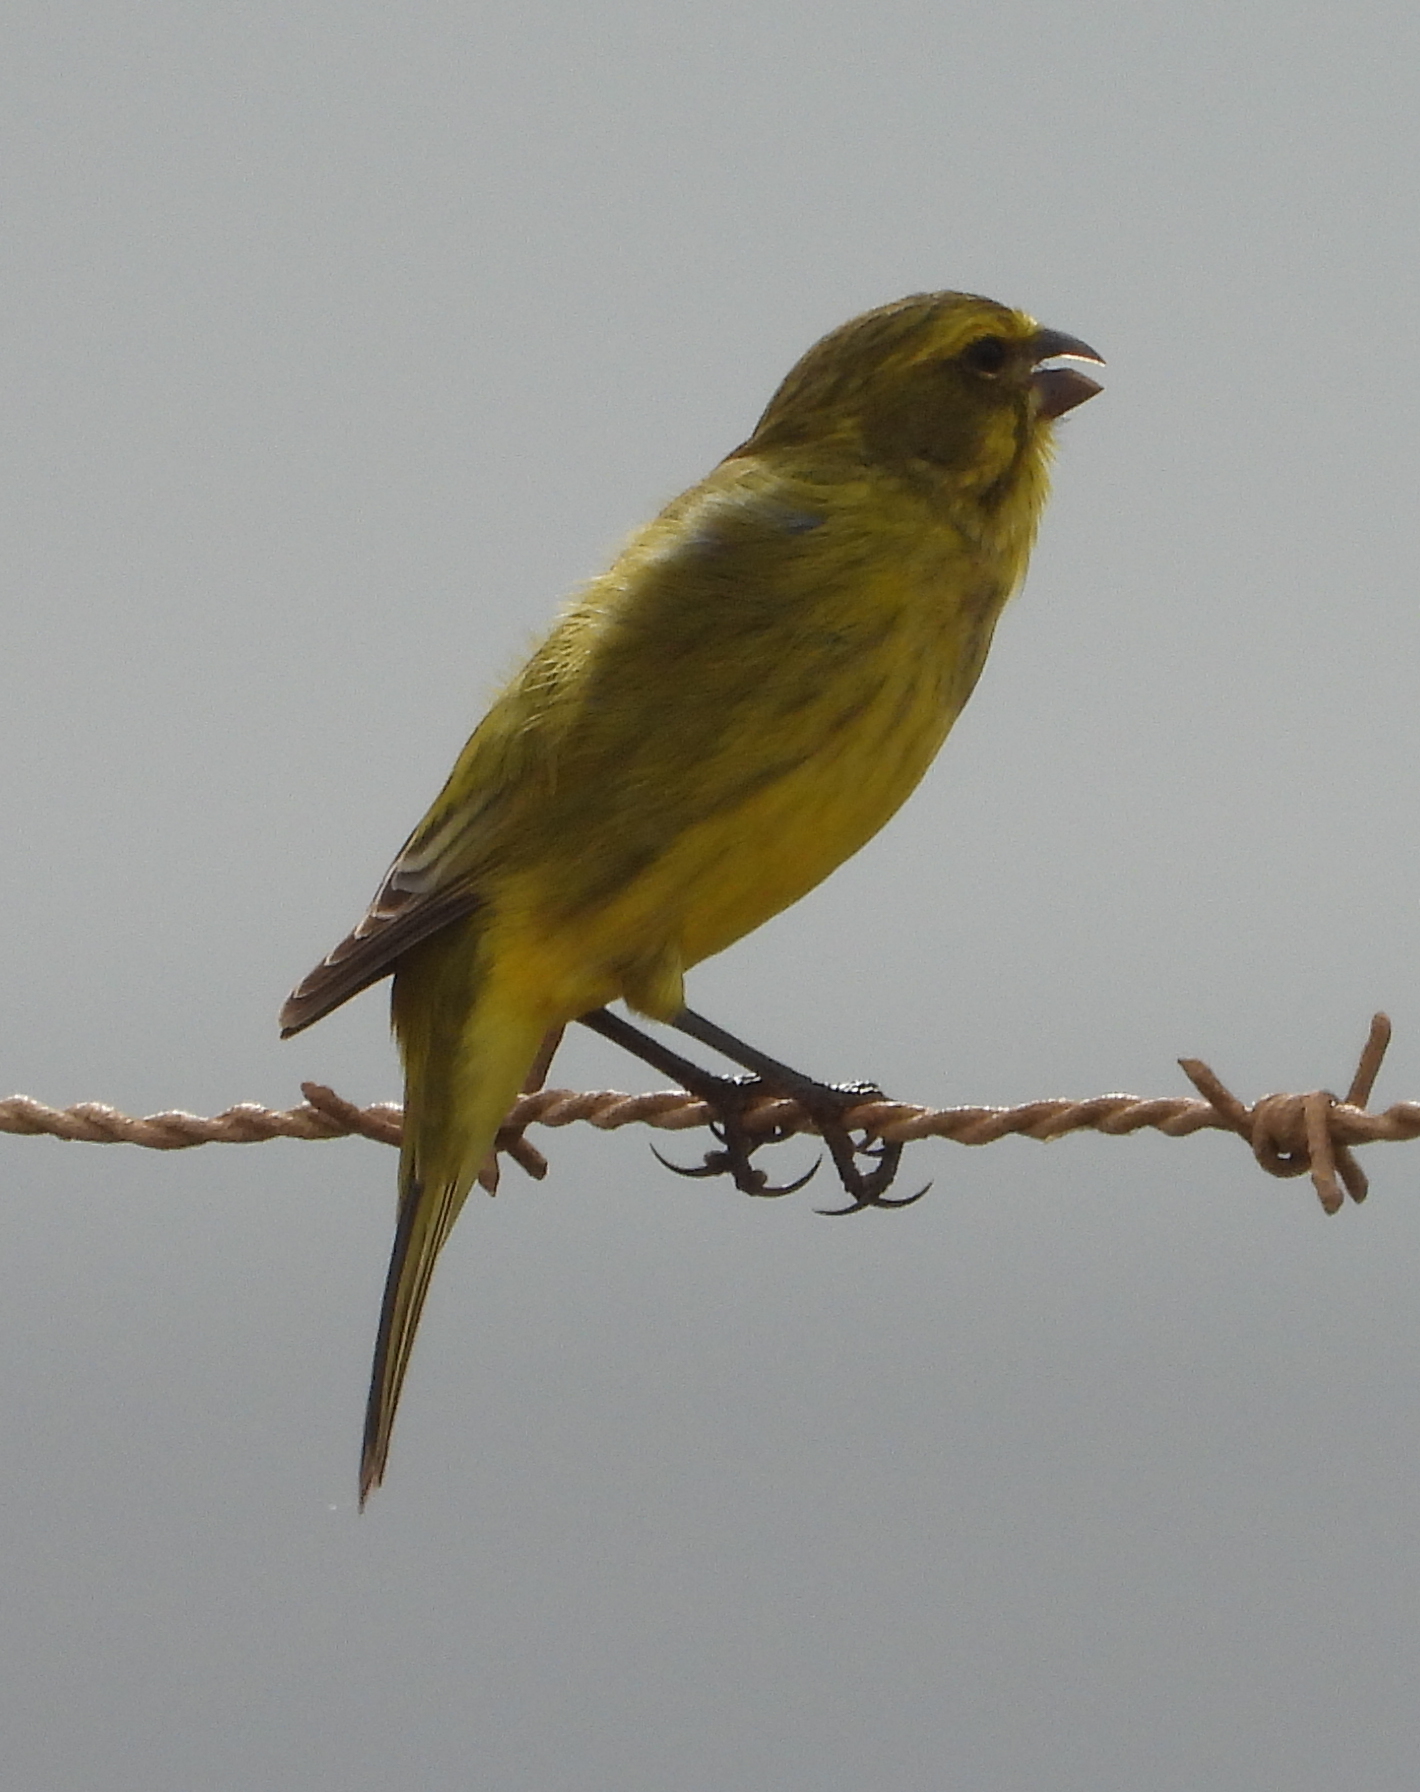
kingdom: Animalia
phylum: Chordata
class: Aves
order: Passeriformes
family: Fringillidae
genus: Crithagra
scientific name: Crithagra flaviventris
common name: Yellow canary
